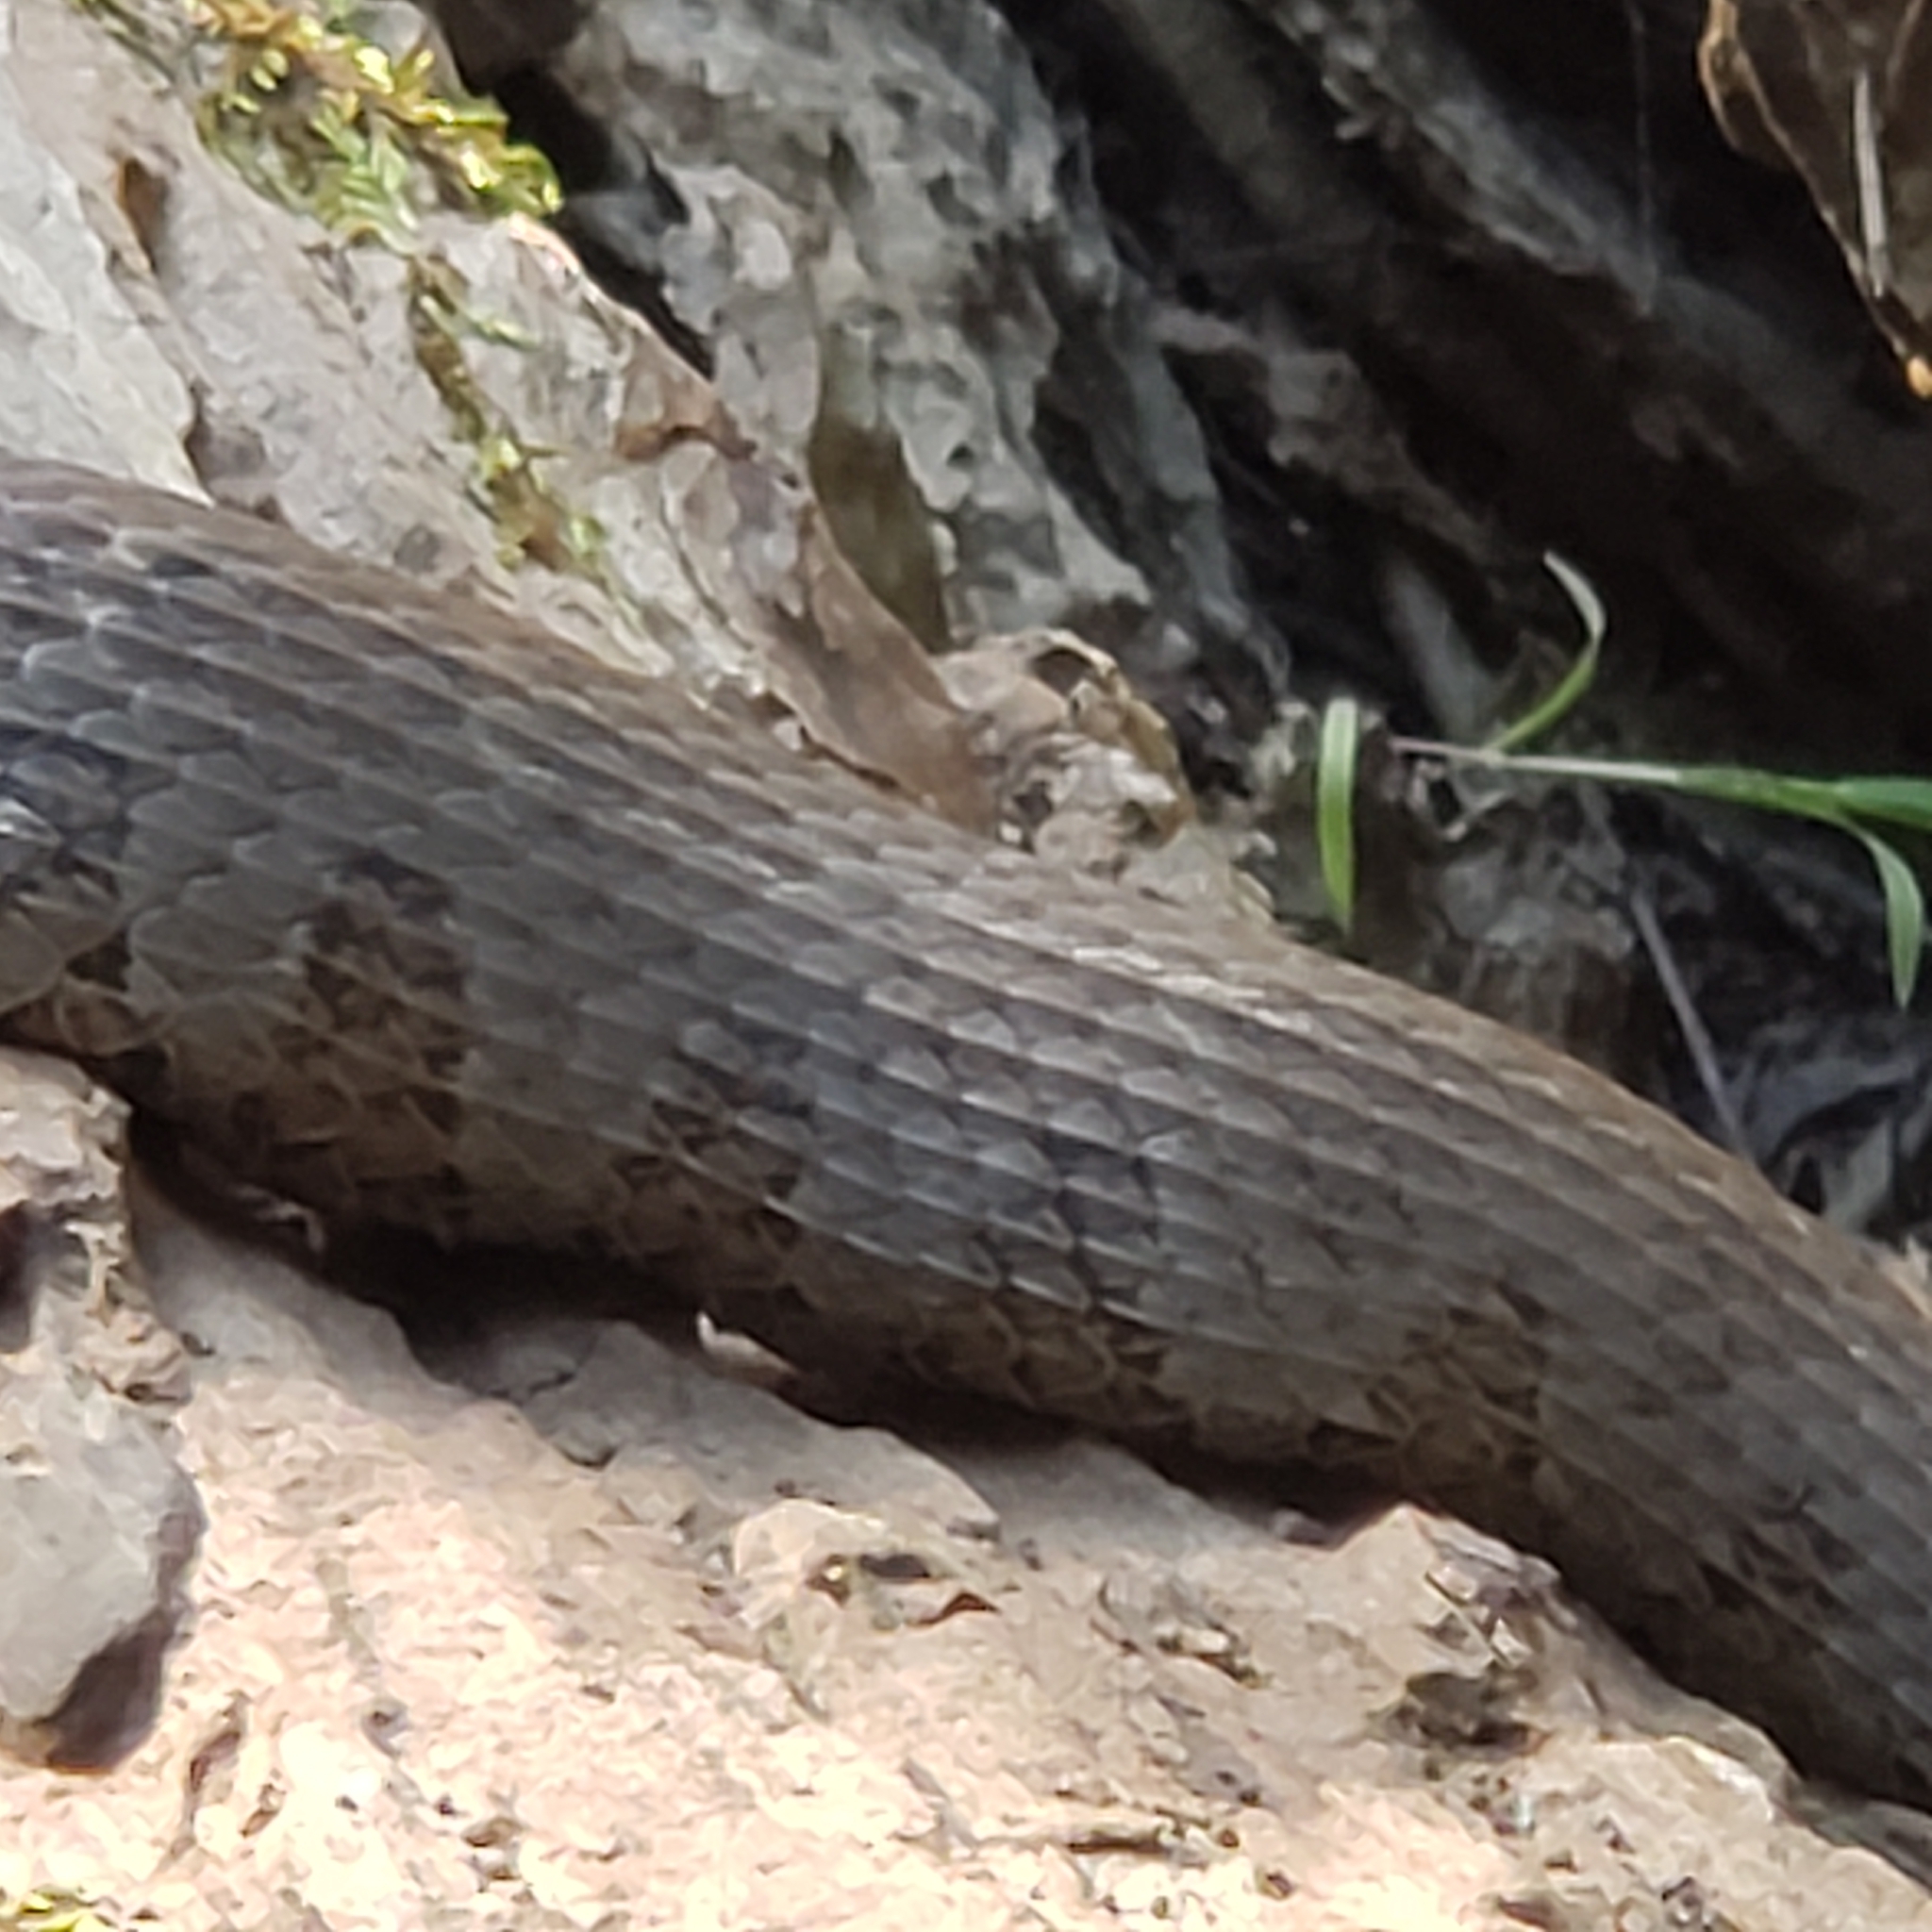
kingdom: Animalia
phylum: Chordata
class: Squamata
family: Colubridae
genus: Nerodia
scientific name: Nerodia sipedon
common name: Northern water snake
